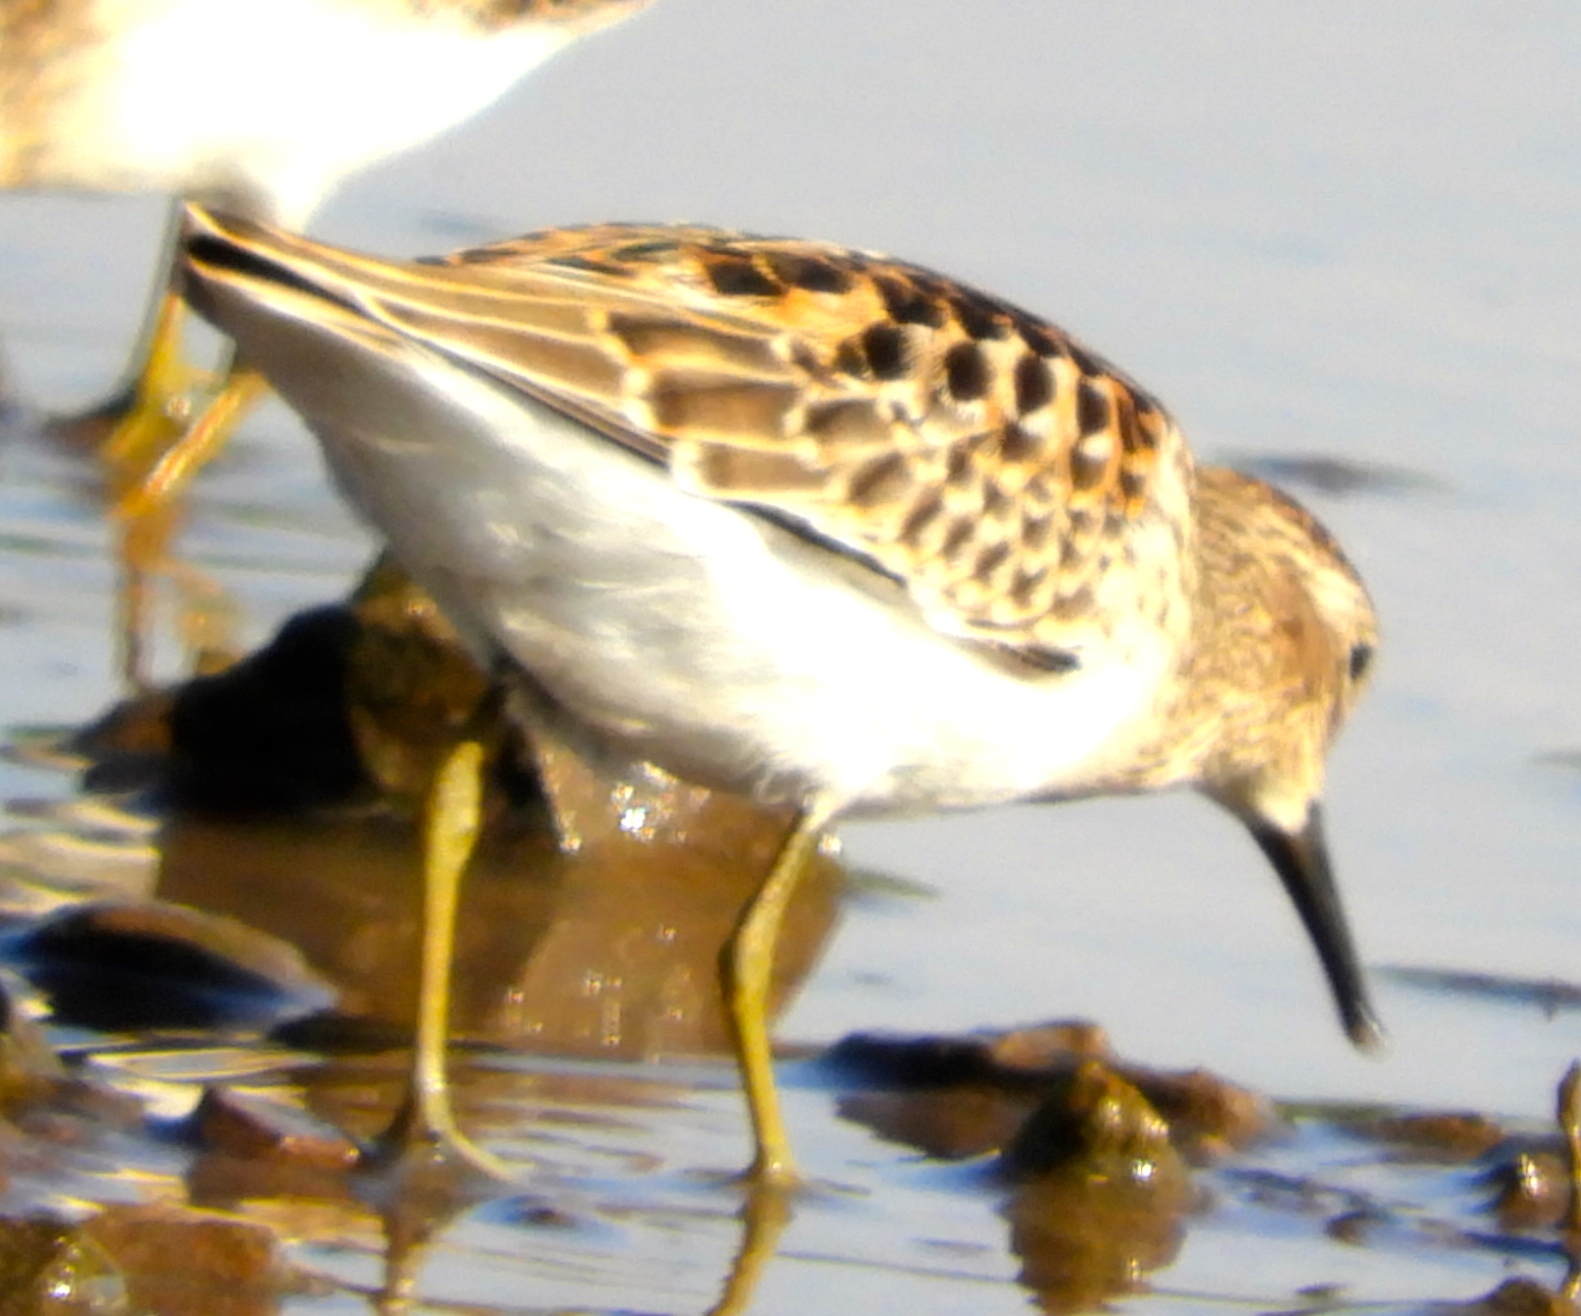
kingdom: Animalia
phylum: Chordata
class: Aves
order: Charadriiformes
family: Scolopacidae
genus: Calidris
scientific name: Calidris minutilla
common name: Least sandpiper
